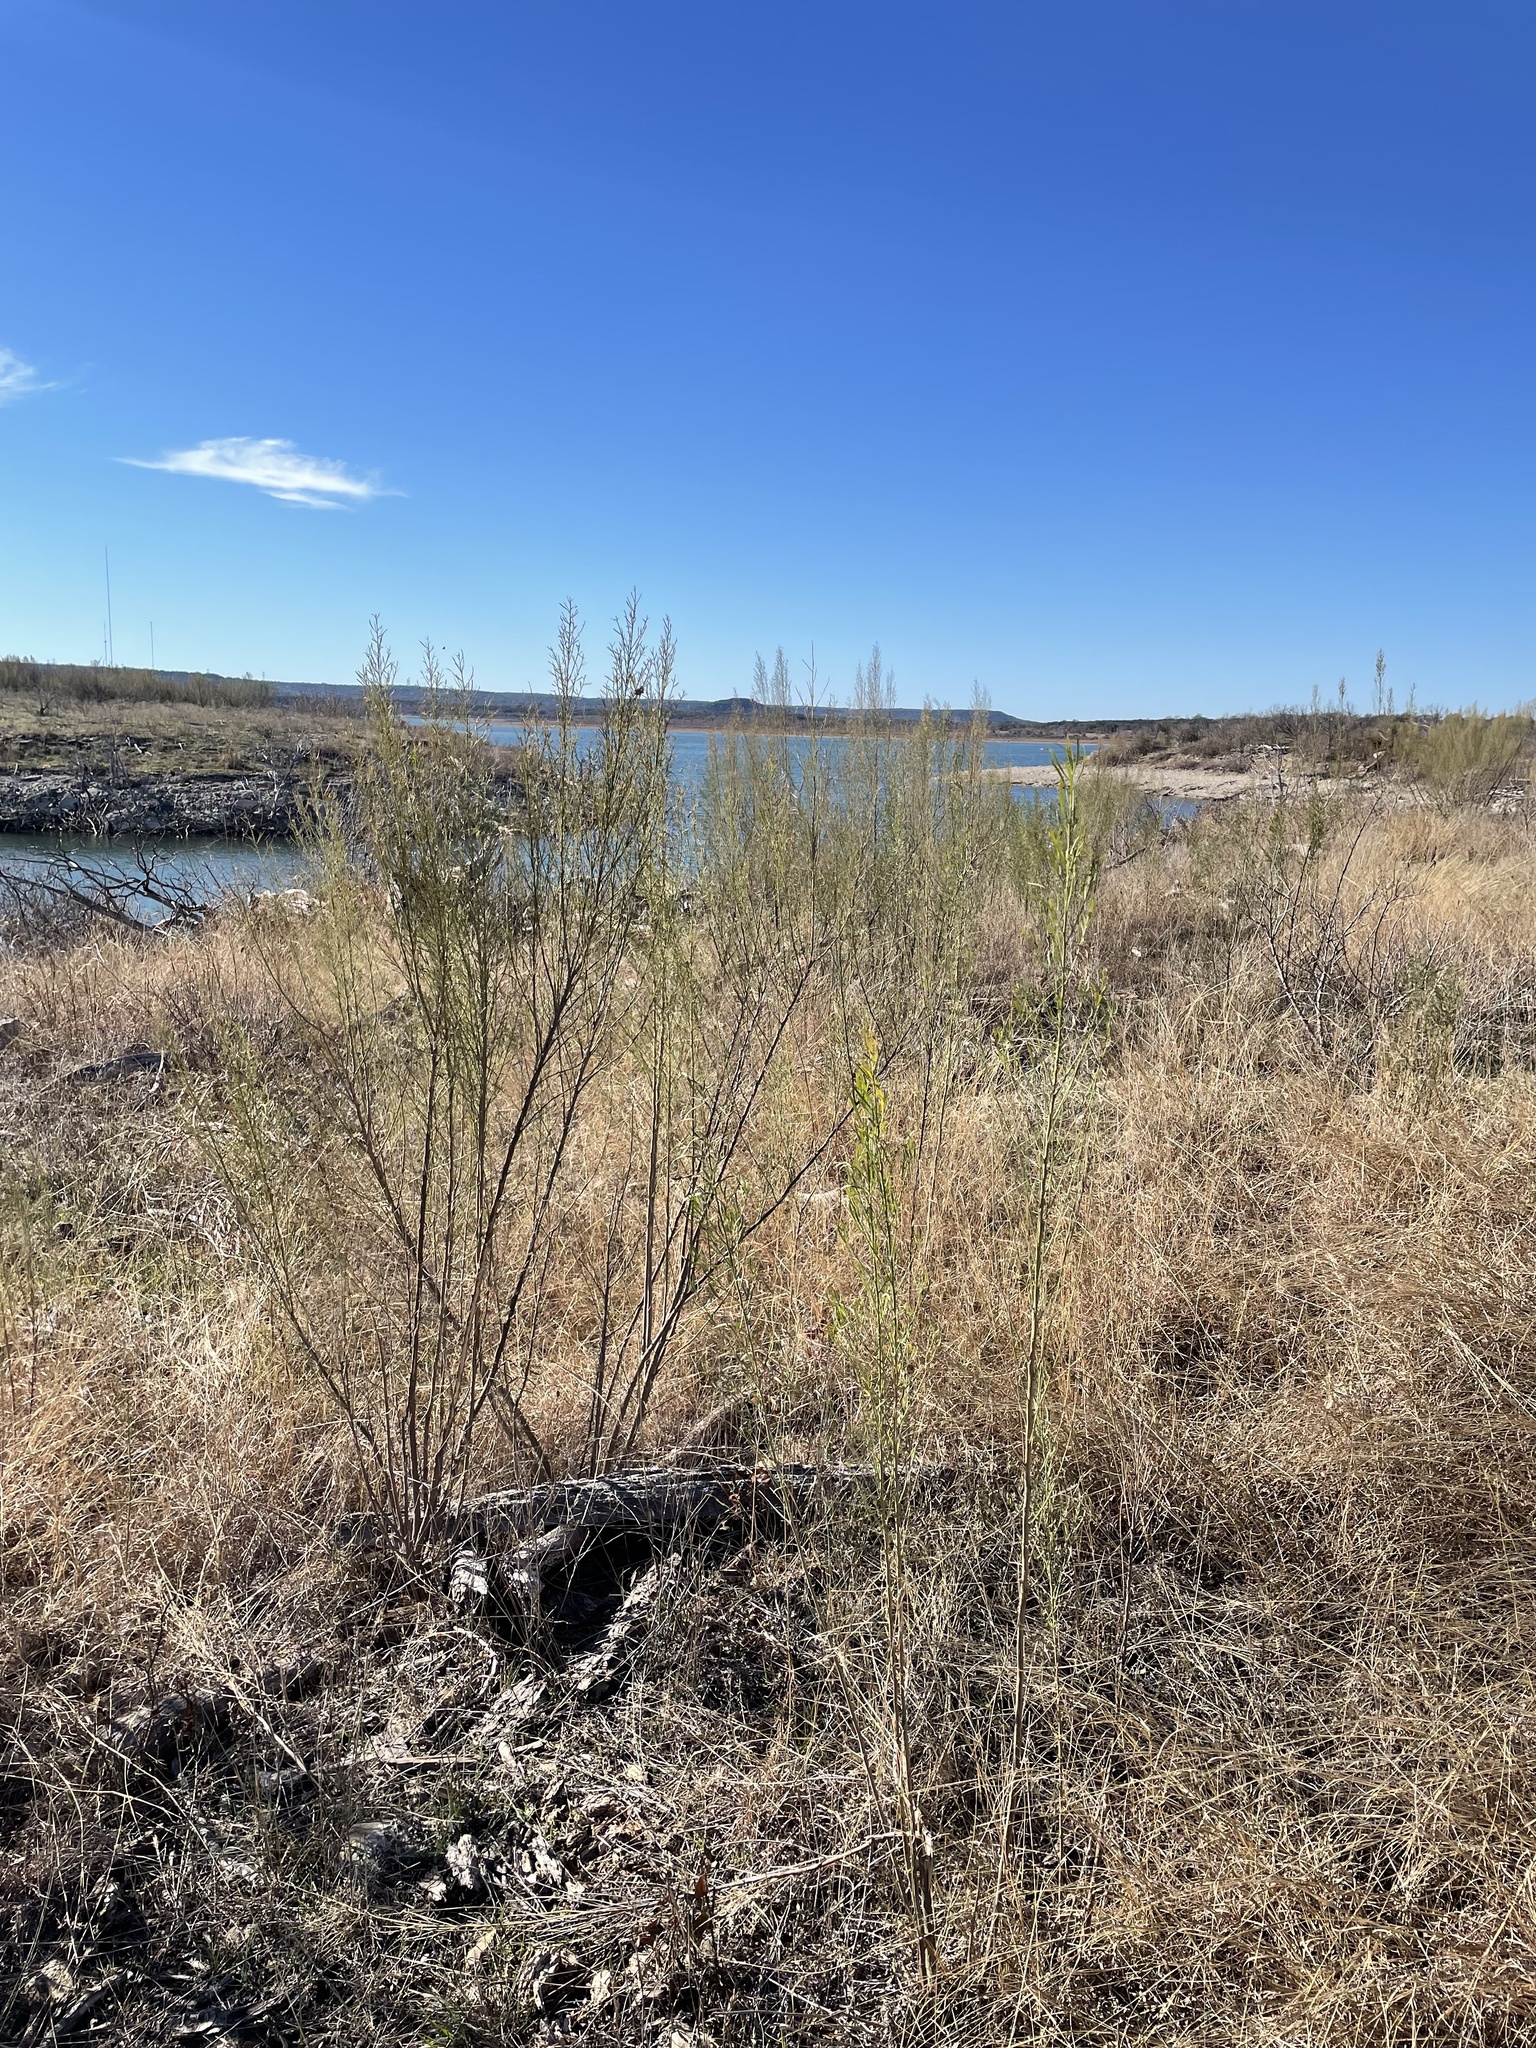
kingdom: Plantae
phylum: Tracheophyta
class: Magnoliopsida
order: Asterales
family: Asteraceae
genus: Baccharis
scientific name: Baccharis neglecta
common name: Roosevelt-weed
